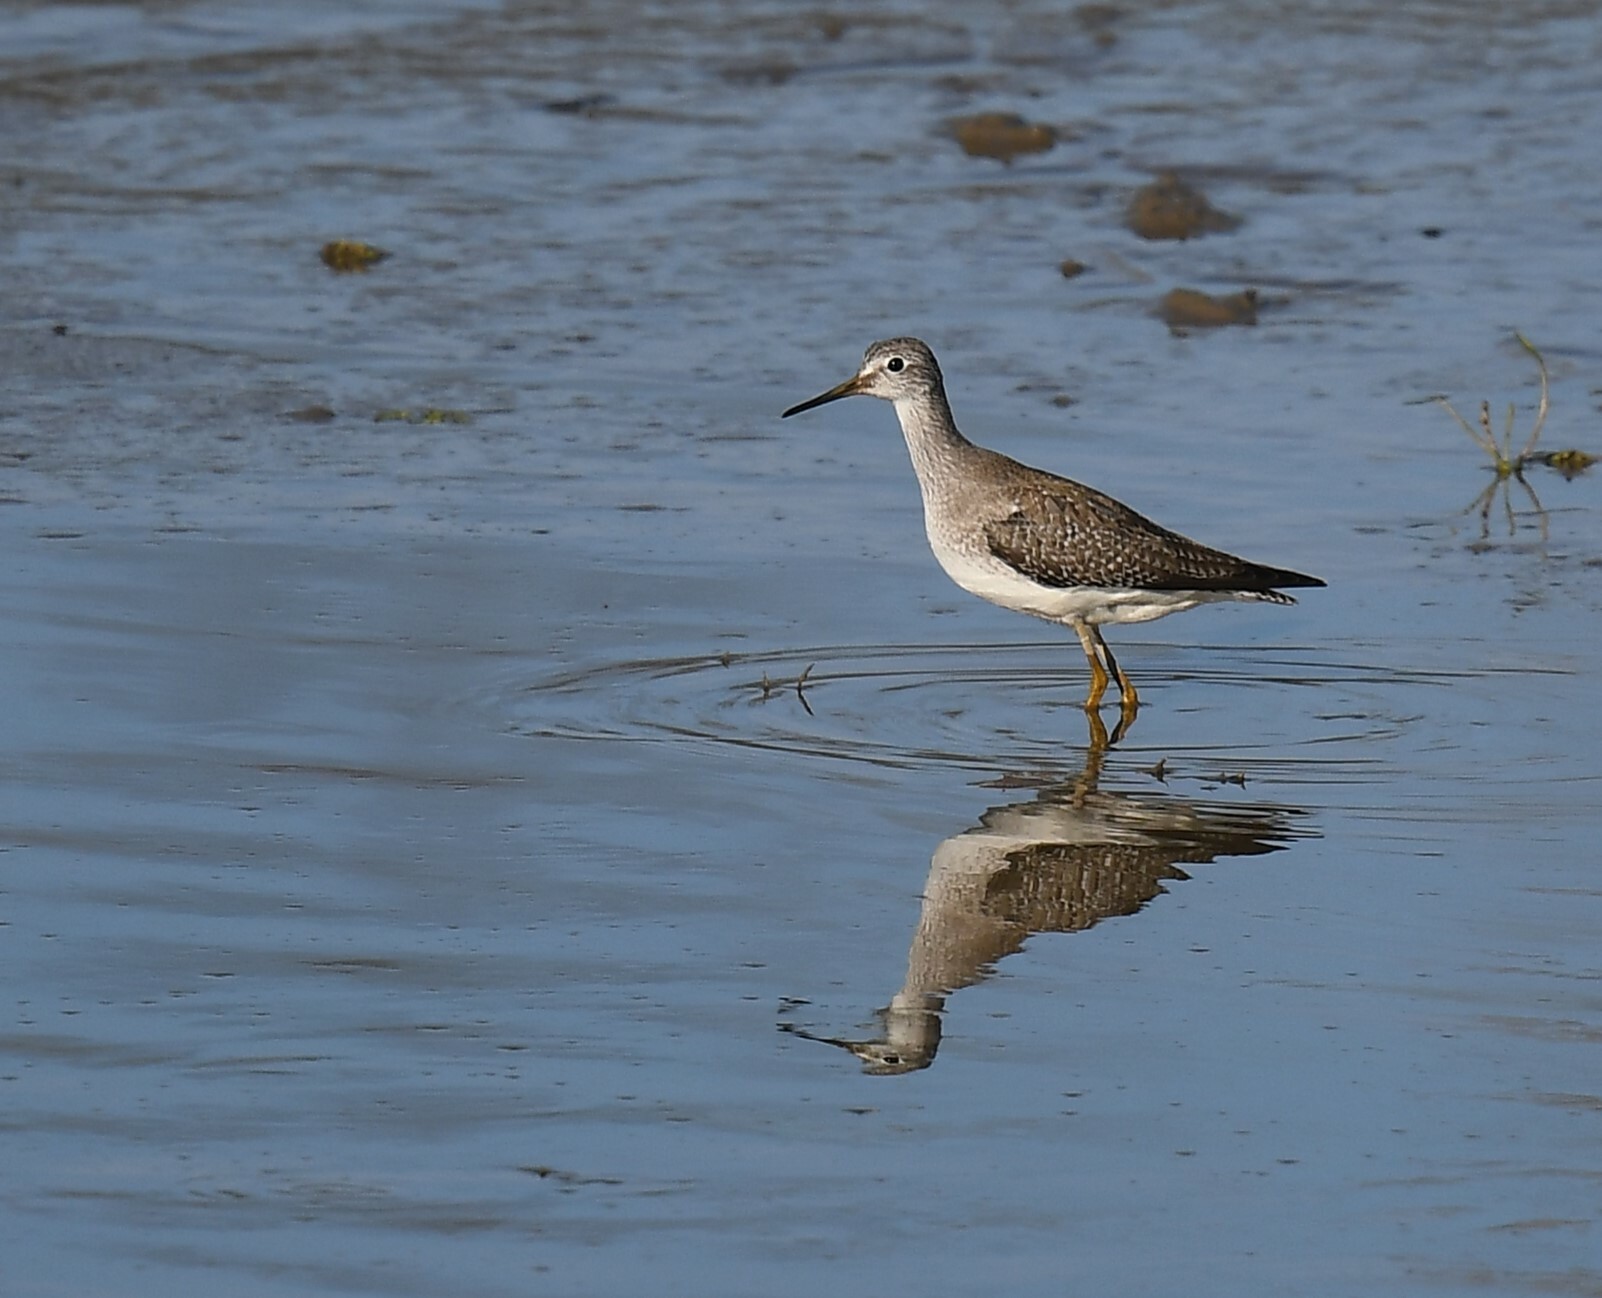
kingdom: Animalia
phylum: Chordata
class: Aves
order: Charadriiformes
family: Scolopacidae
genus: Tringa
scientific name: Tringa flavipes
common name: Lesser yellowlegs
